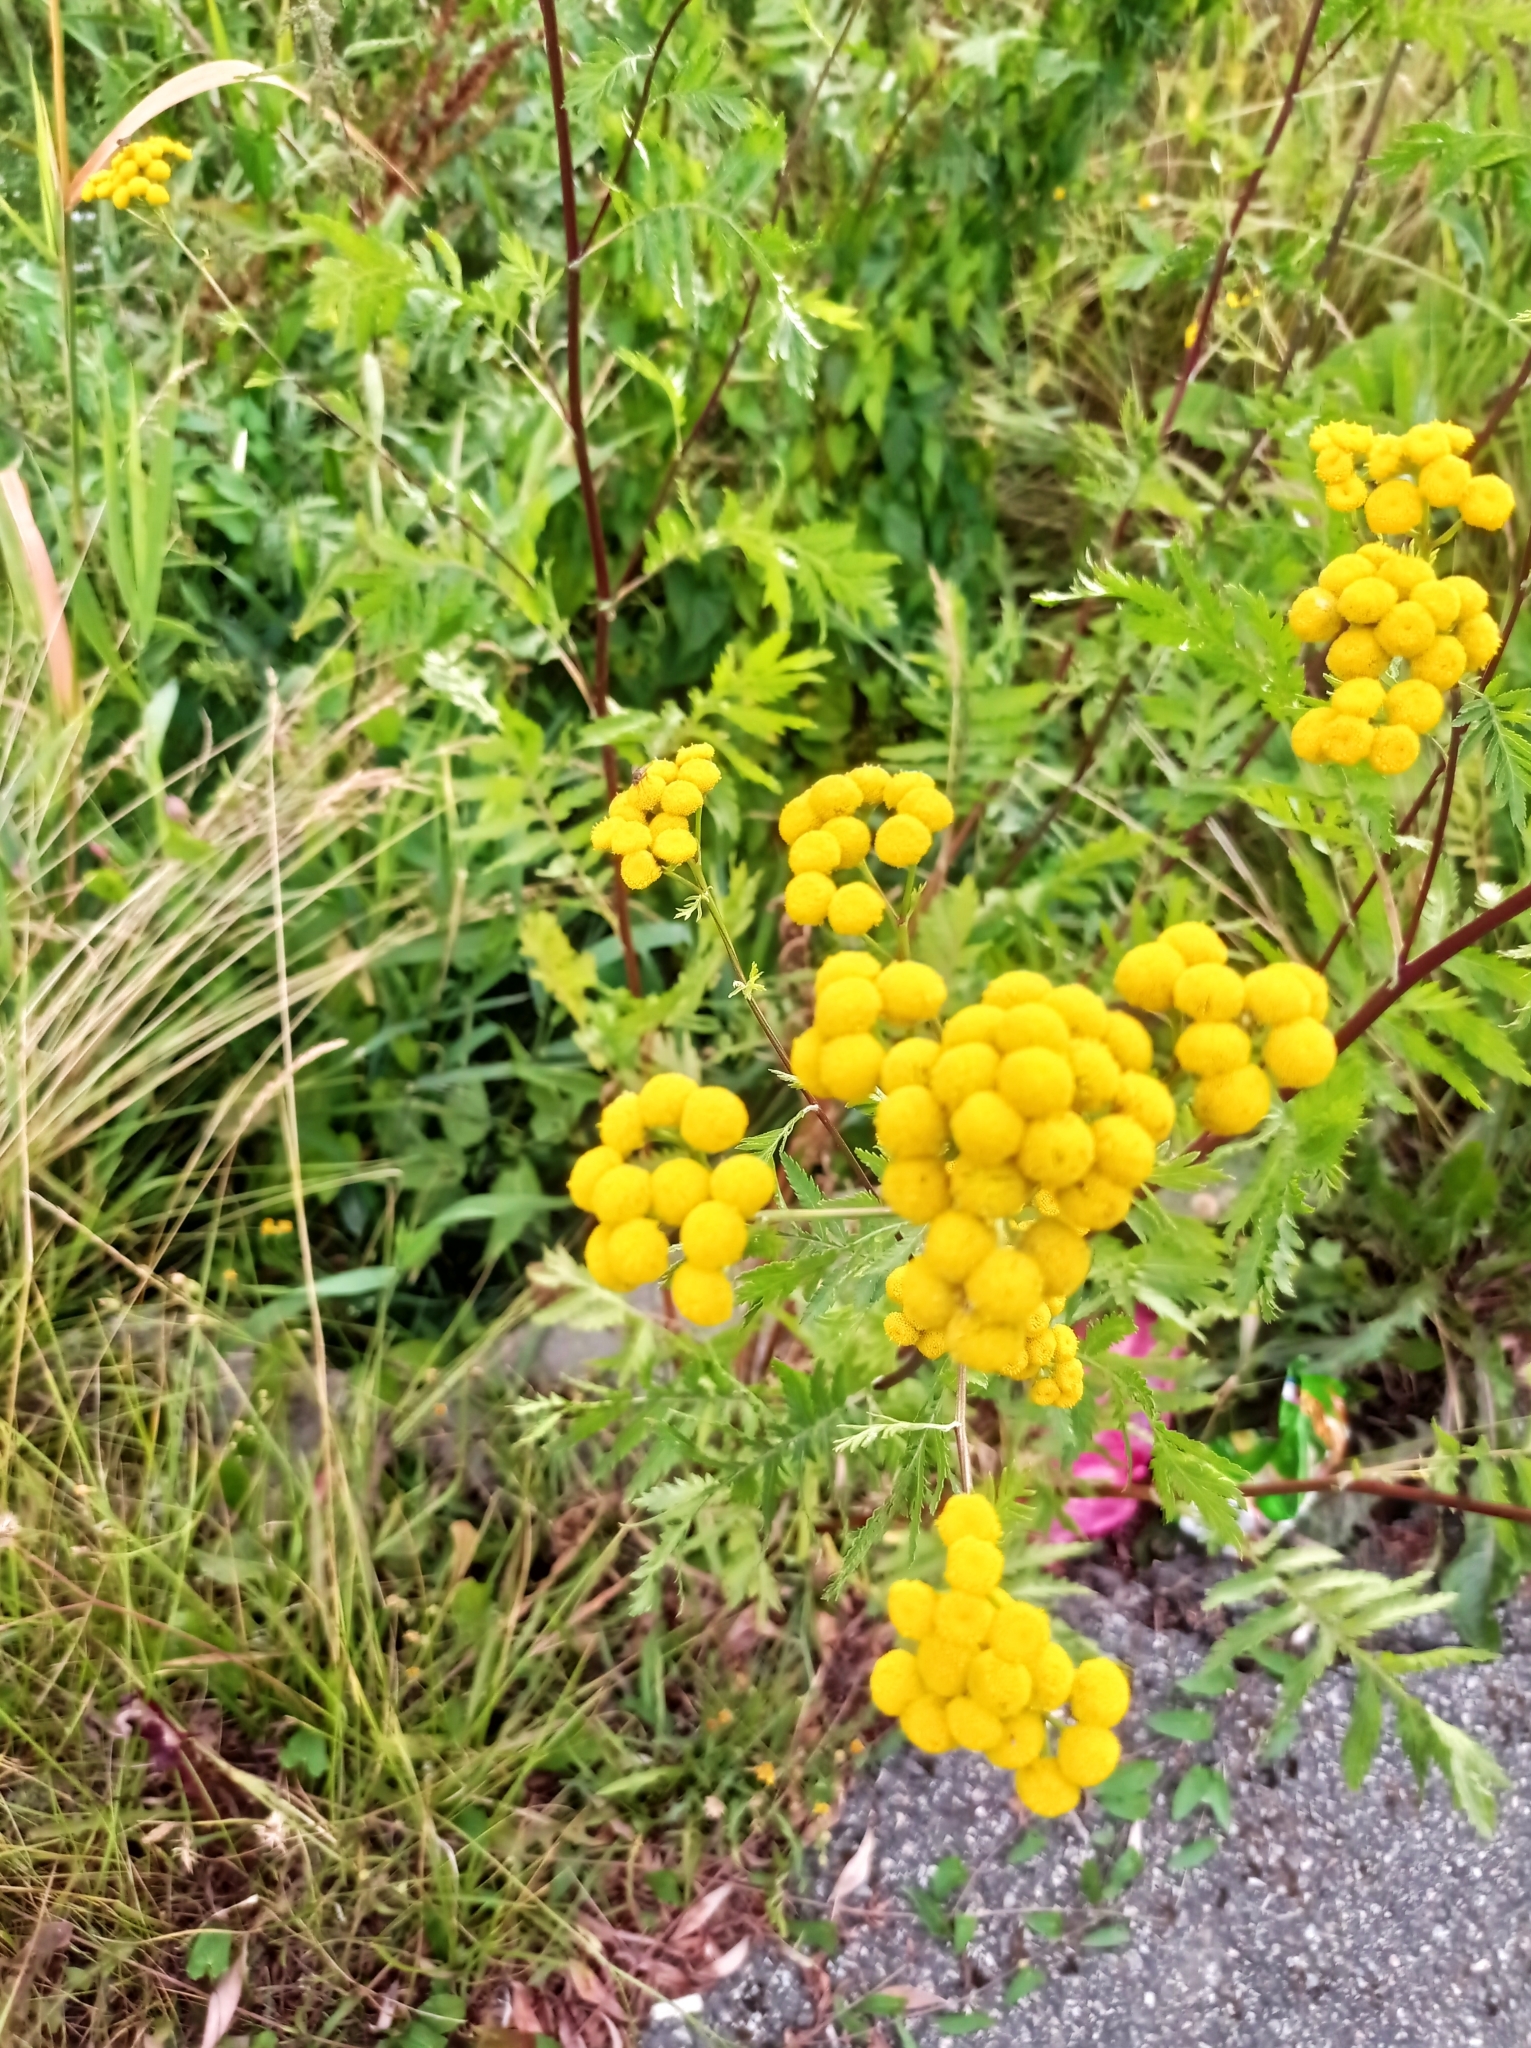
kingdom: Plantae
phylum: Tracheophyta
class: Magnoliopsida
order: Asterales
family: Asteraceae
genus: Tanacetum
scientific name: Tanacetum vulgare
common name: Common tansy
